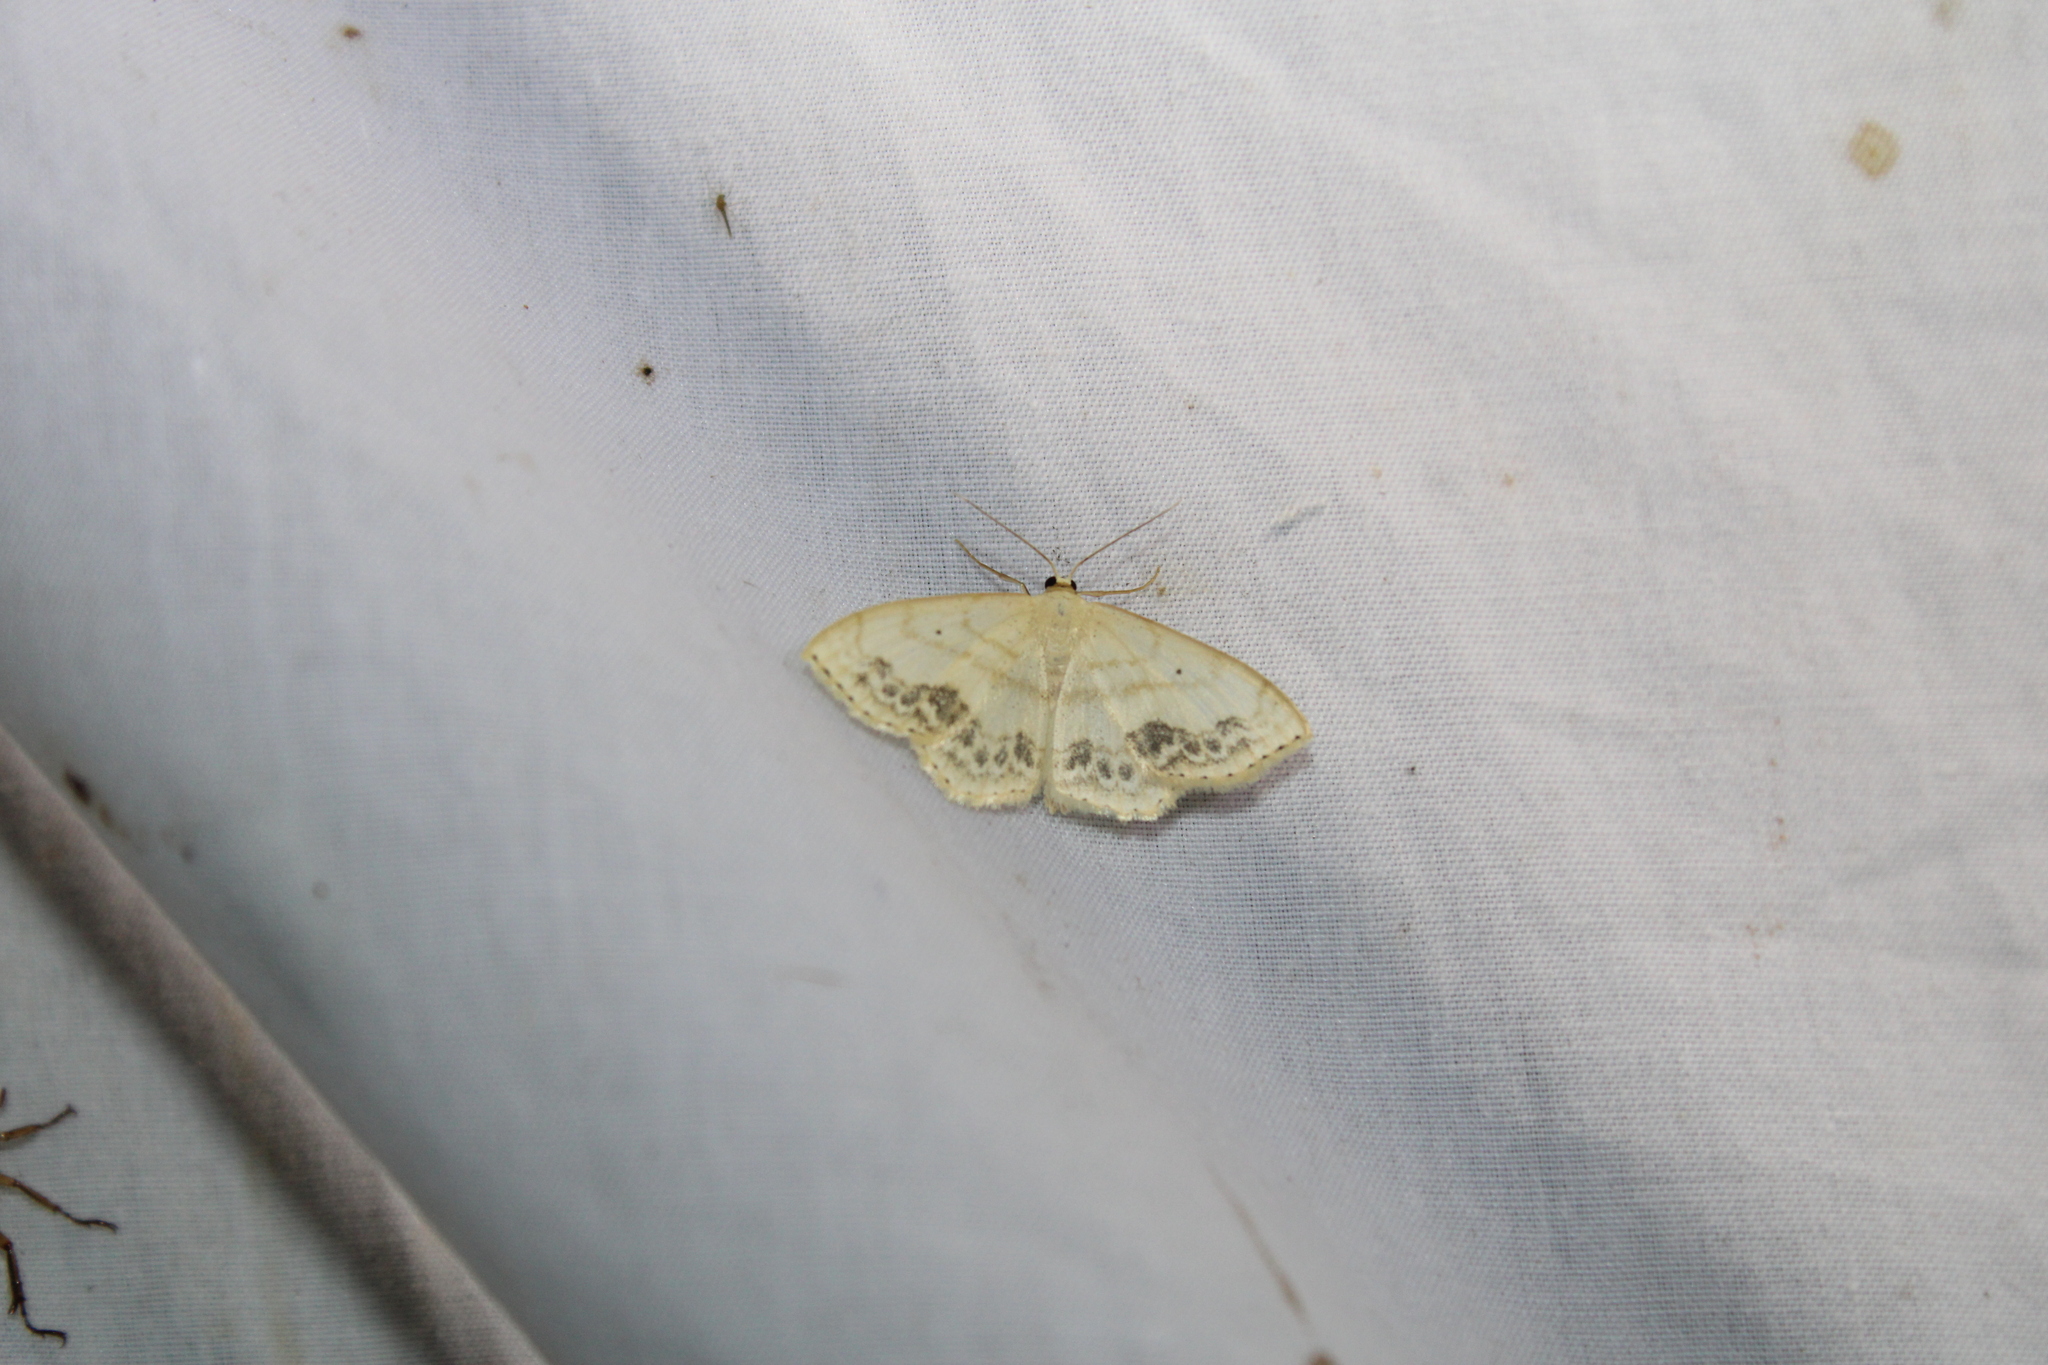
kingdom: Animalia
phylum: Arthropoda
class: Insecta
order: Lepidoptera
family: Geometridae
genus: Scopula
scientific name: Scopula limboundata
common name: Large lace border
